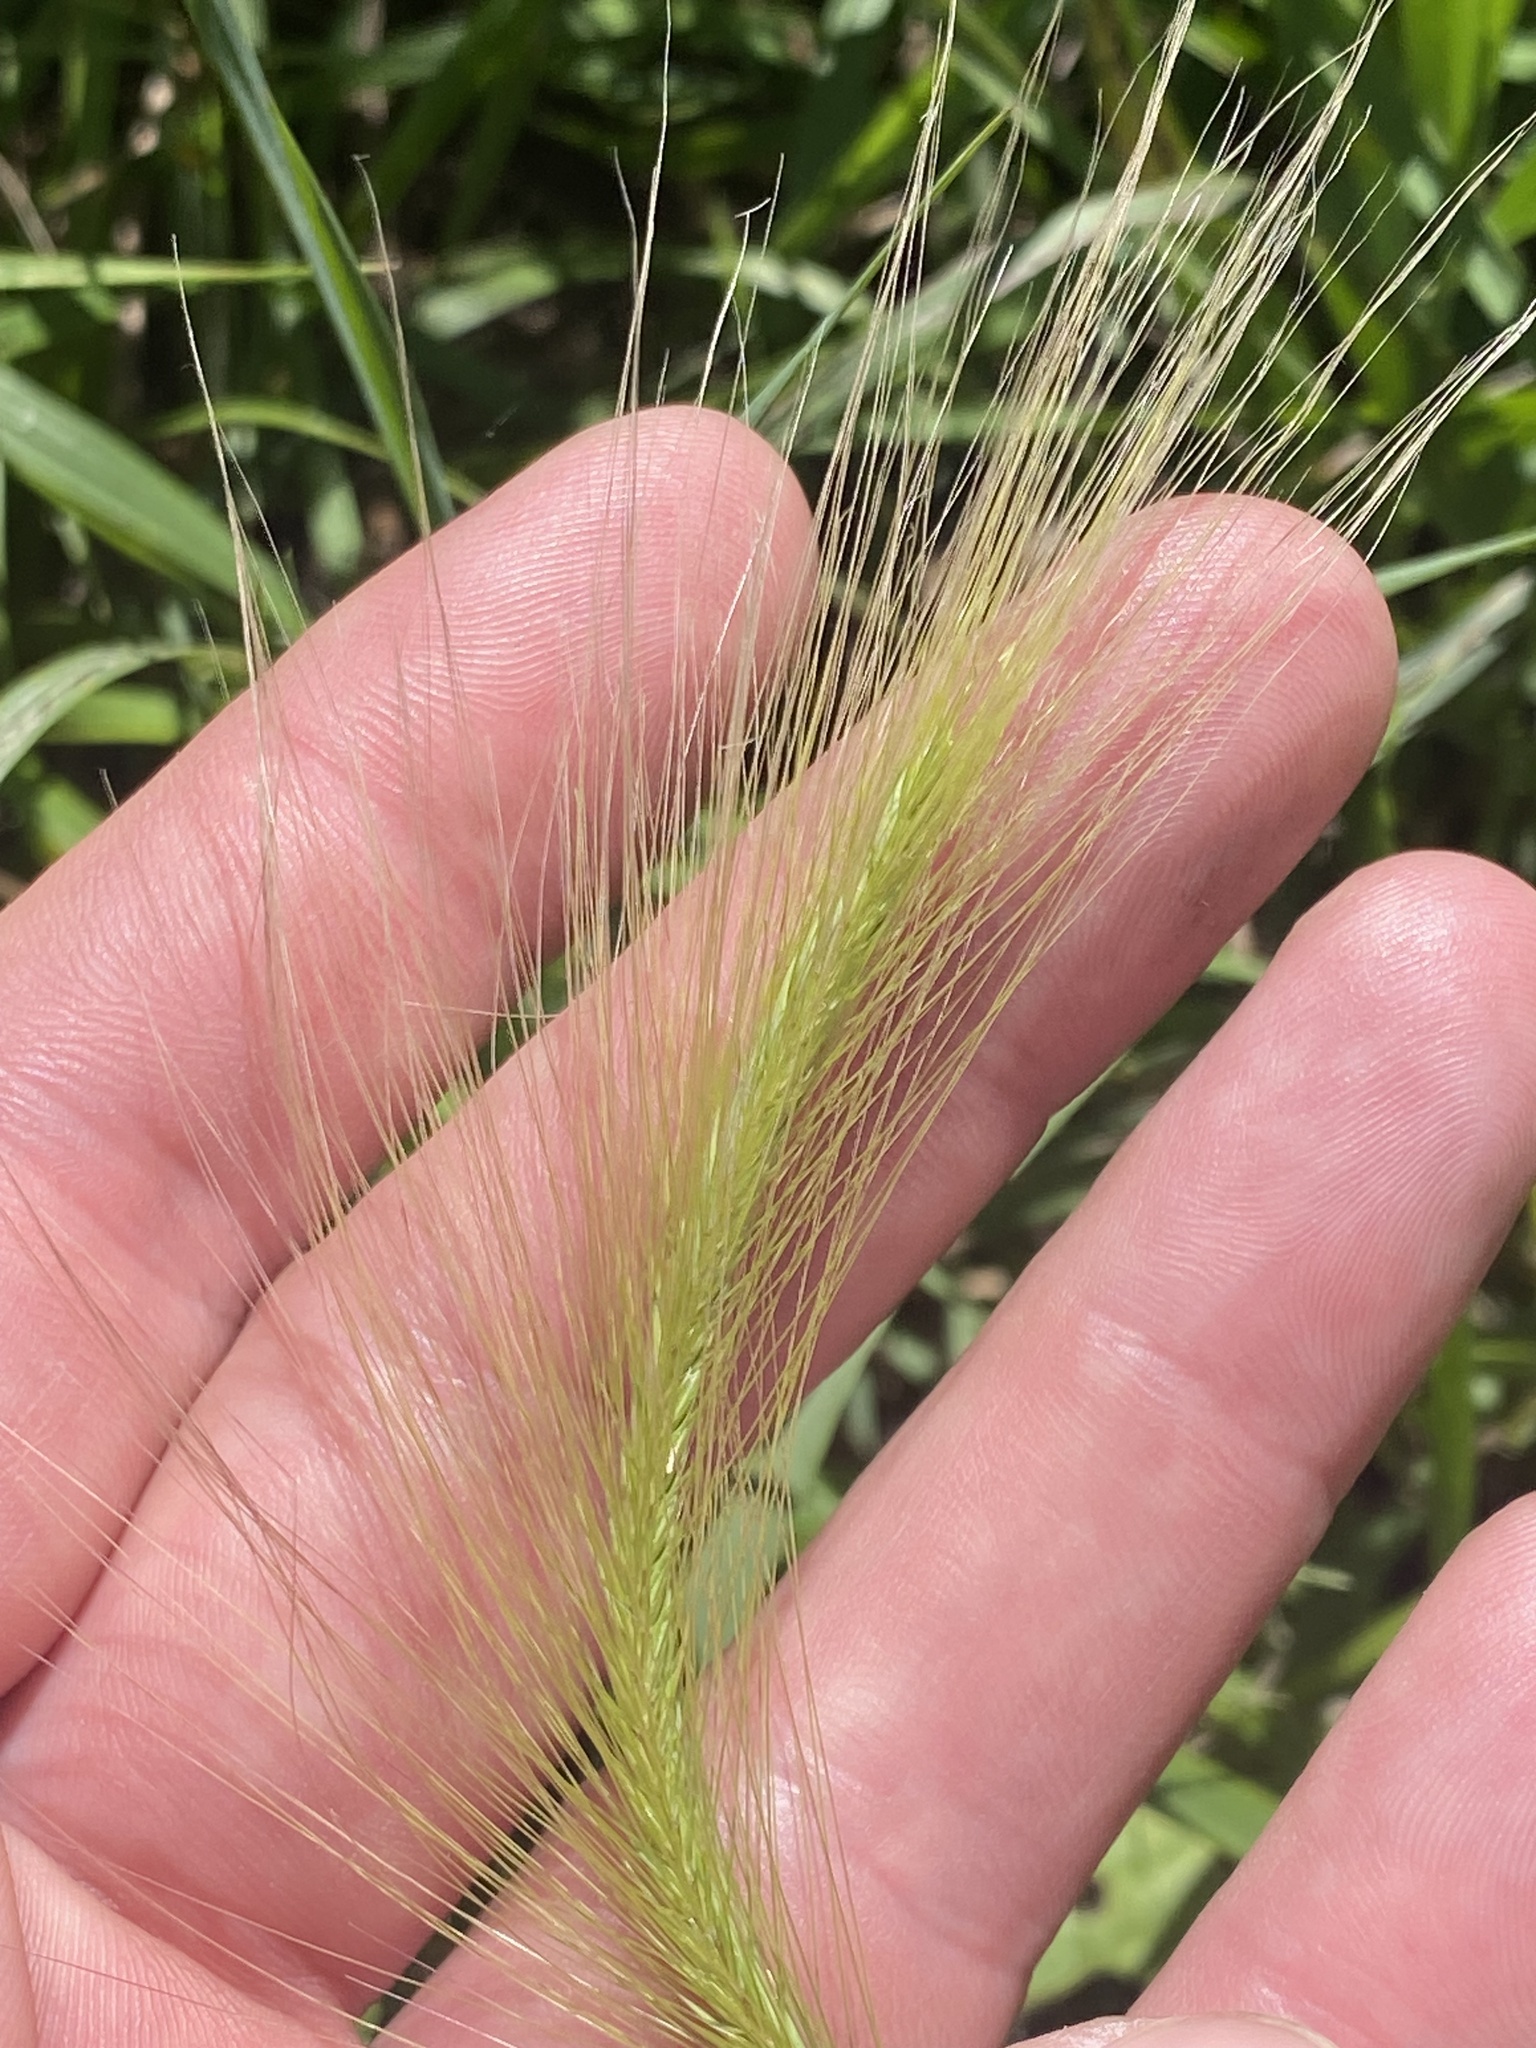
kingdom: Plantae
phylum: Tracheophyta
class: Liliopsida
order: Poales
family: Poaceae
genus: Hordeum
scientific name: Hordeum jubatum
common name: Foxtail barley
